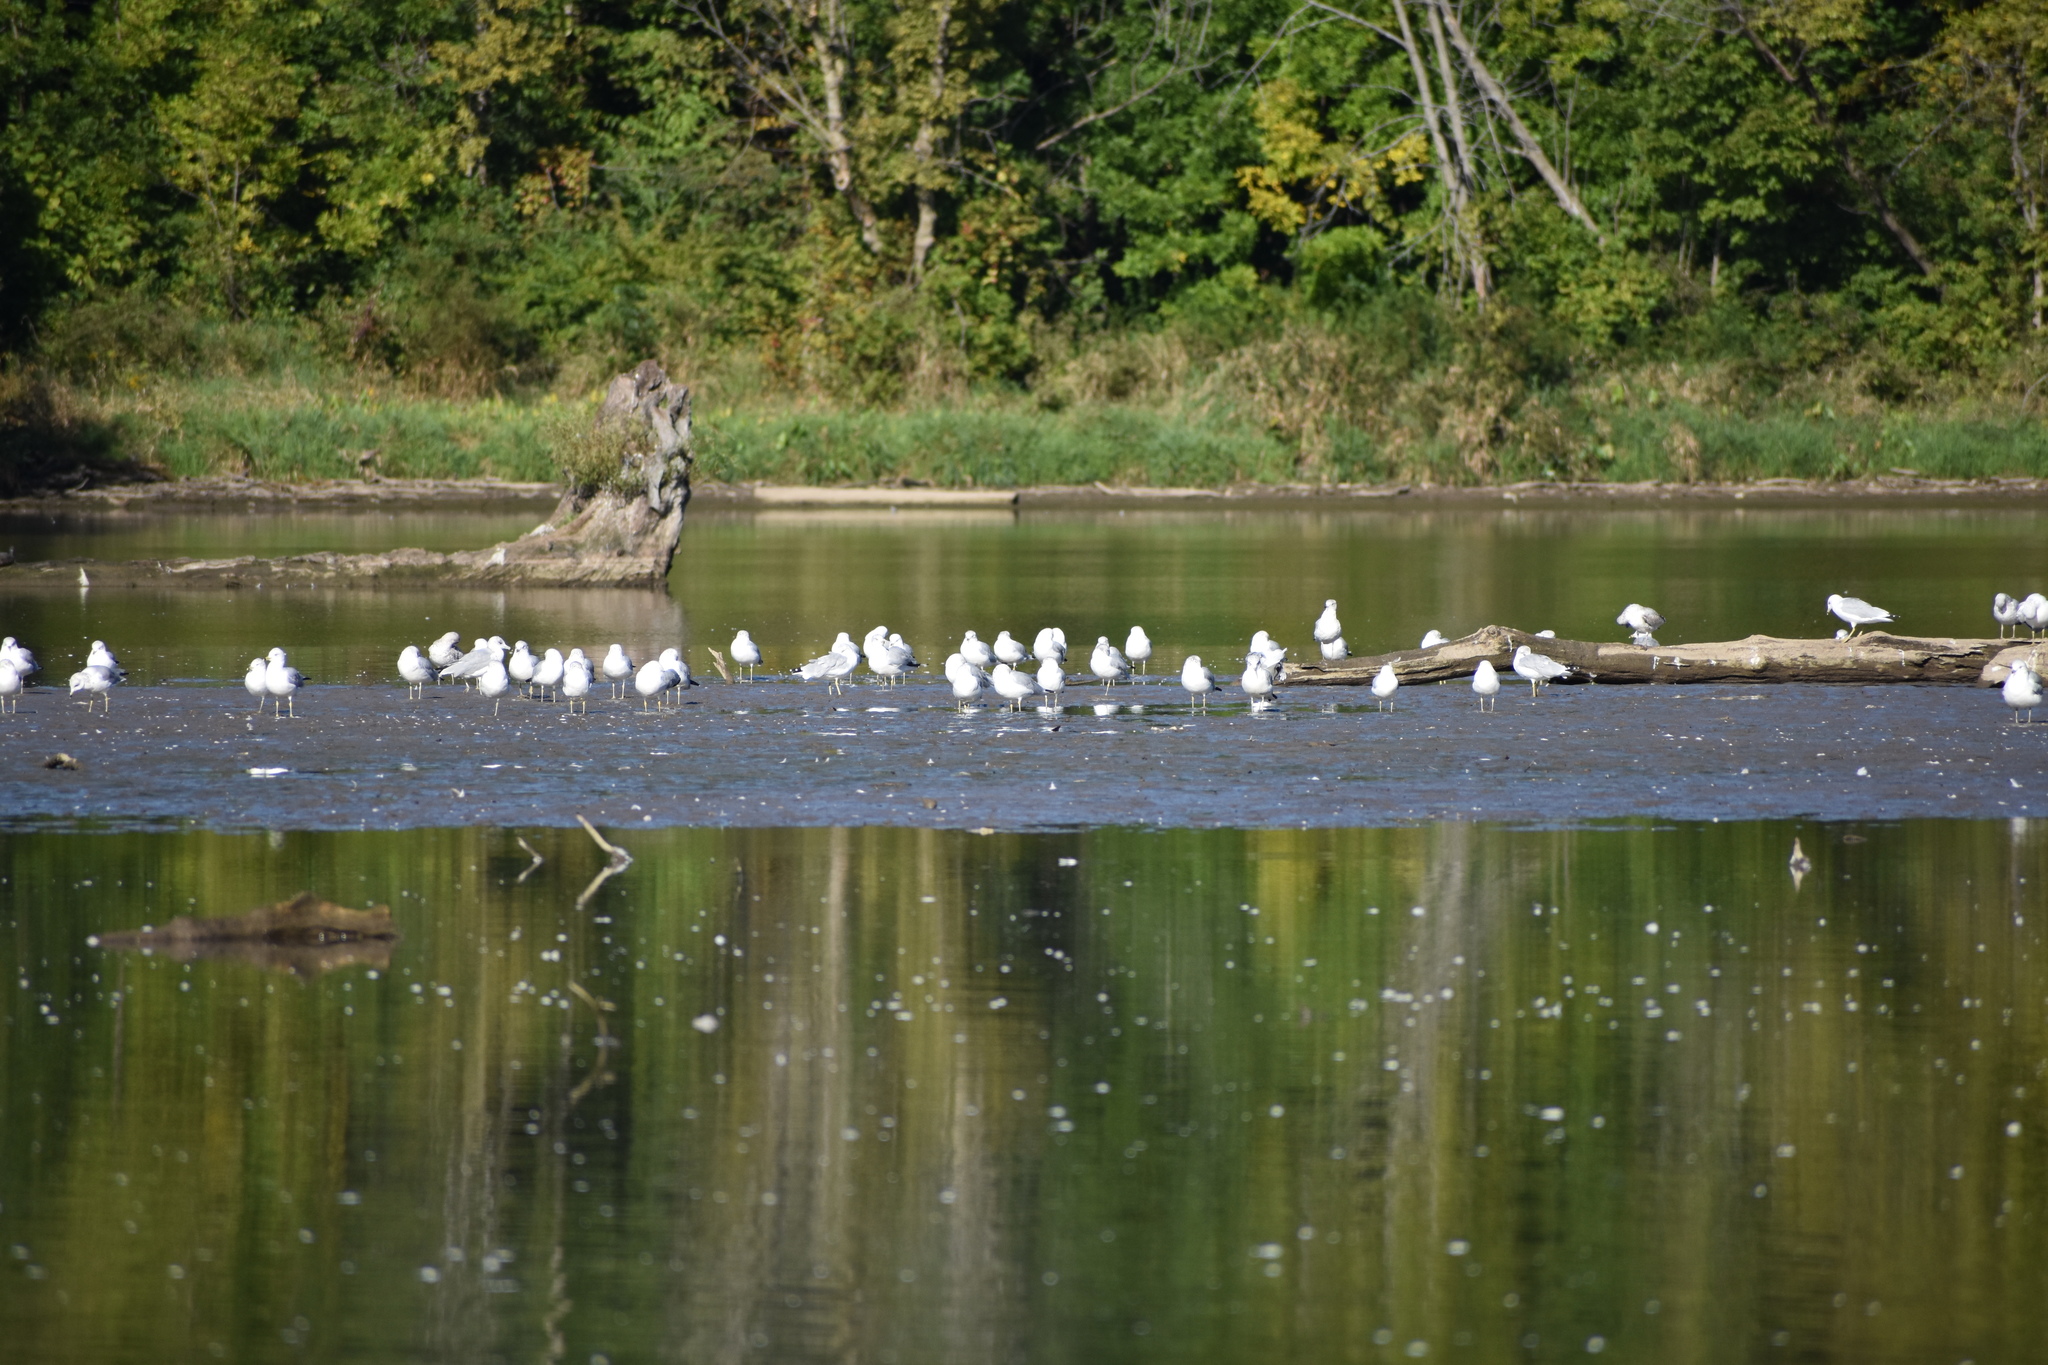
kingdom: Animalia
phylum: Chordata
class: Aves
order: Charadriiformes
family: Laridae
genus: Larus
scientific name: Larus delawarensis
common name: Ring-billed gull
